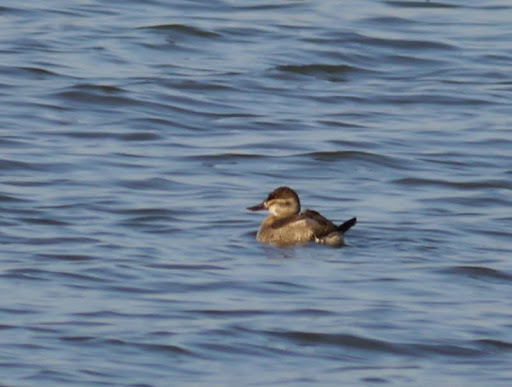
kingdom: Animalia
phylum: Chordata
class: Aves
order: Anseriformes
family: Anatidae
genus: Oxyura
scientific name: Oxyura jamaicensis
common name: Ruddy duck
